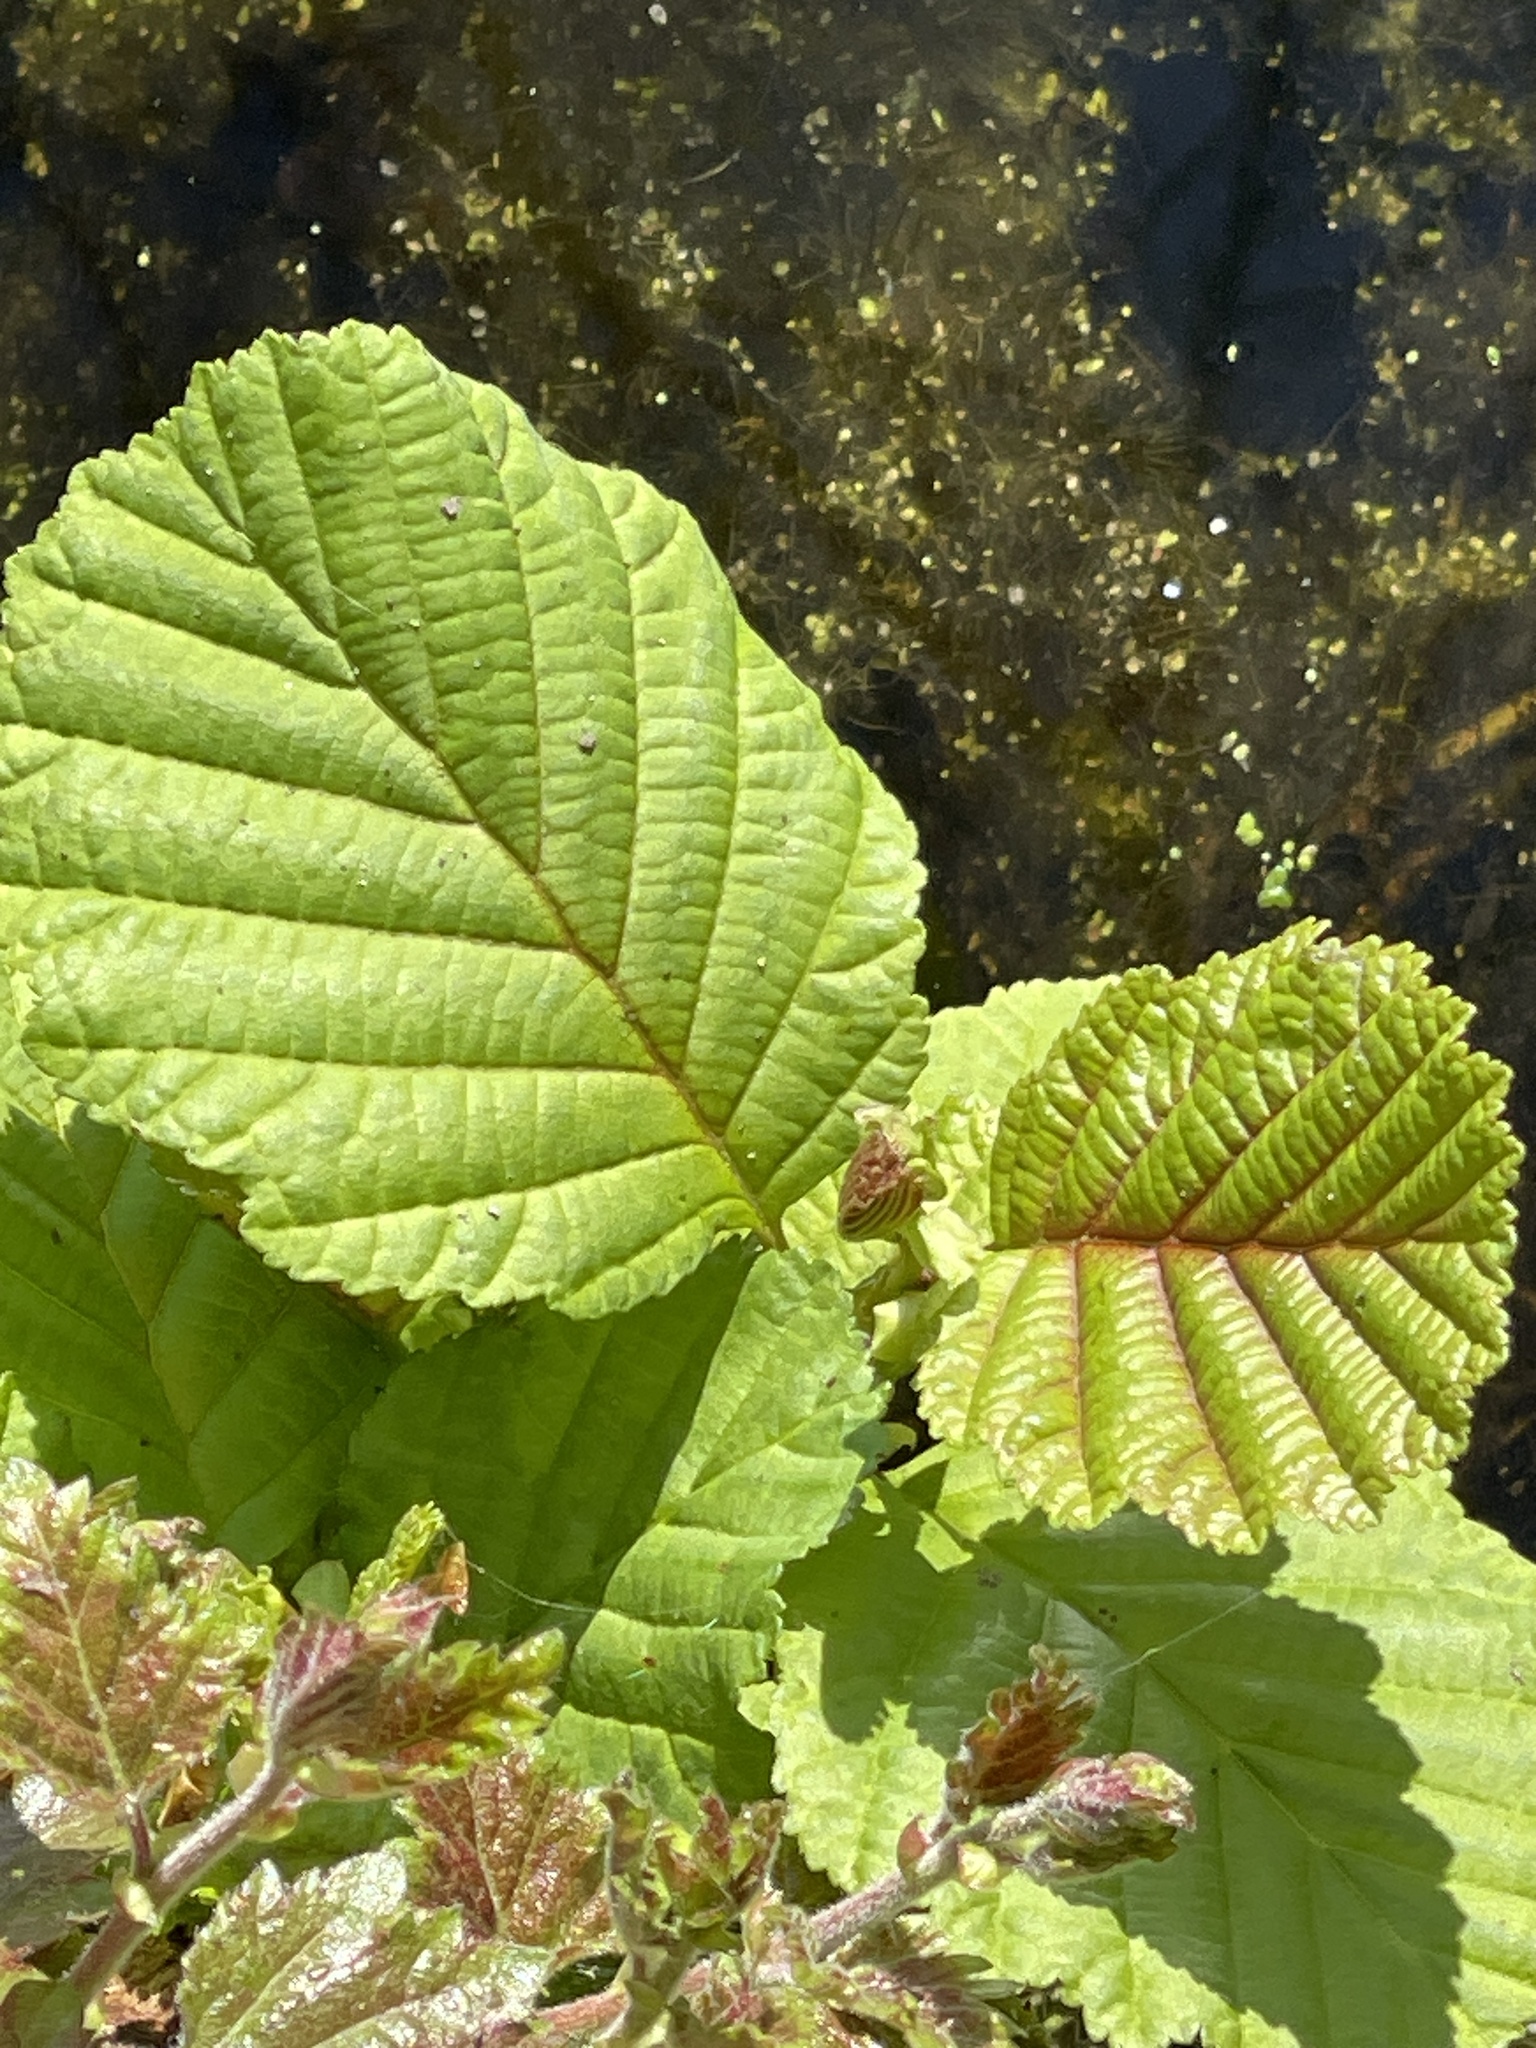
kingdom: Plantae
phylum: Tracheophyta
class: Magnoliopsida
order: Fagales
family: Betulaceae
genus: Alnus
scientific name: Alnus glutinosa
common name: Black alder
